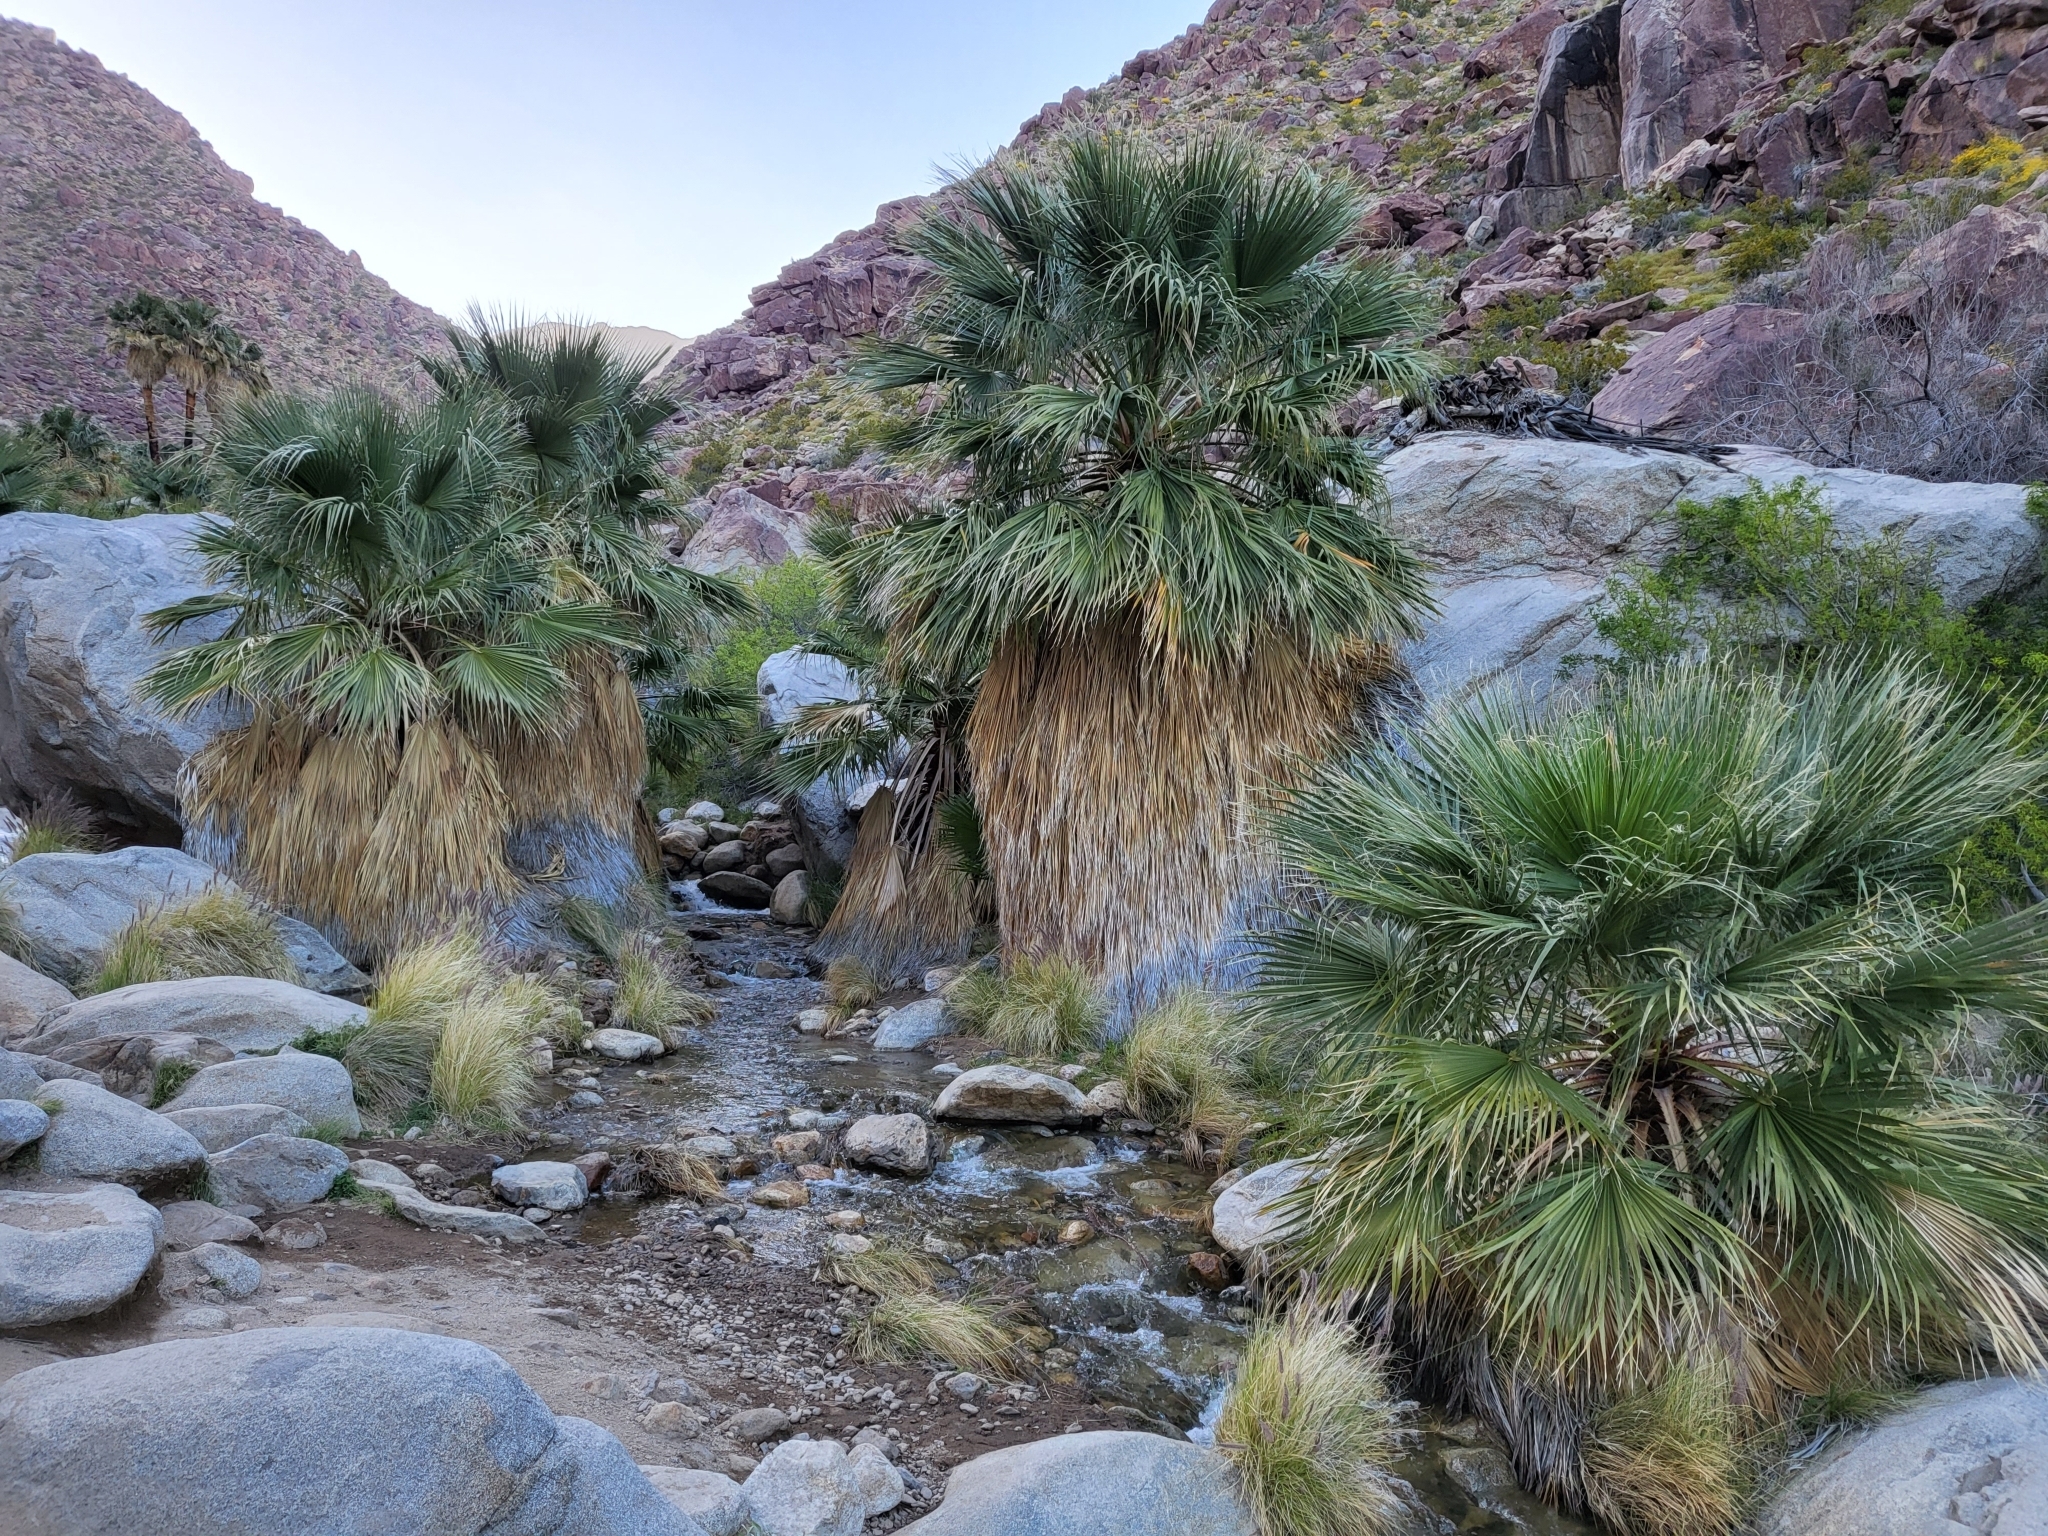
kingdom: Plantae
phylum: Tracheophyta
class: Liliopsida
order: Arecales
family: Arecaceae
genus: Washingtonia
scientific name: Washingtonia filifera
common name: California fan palm
